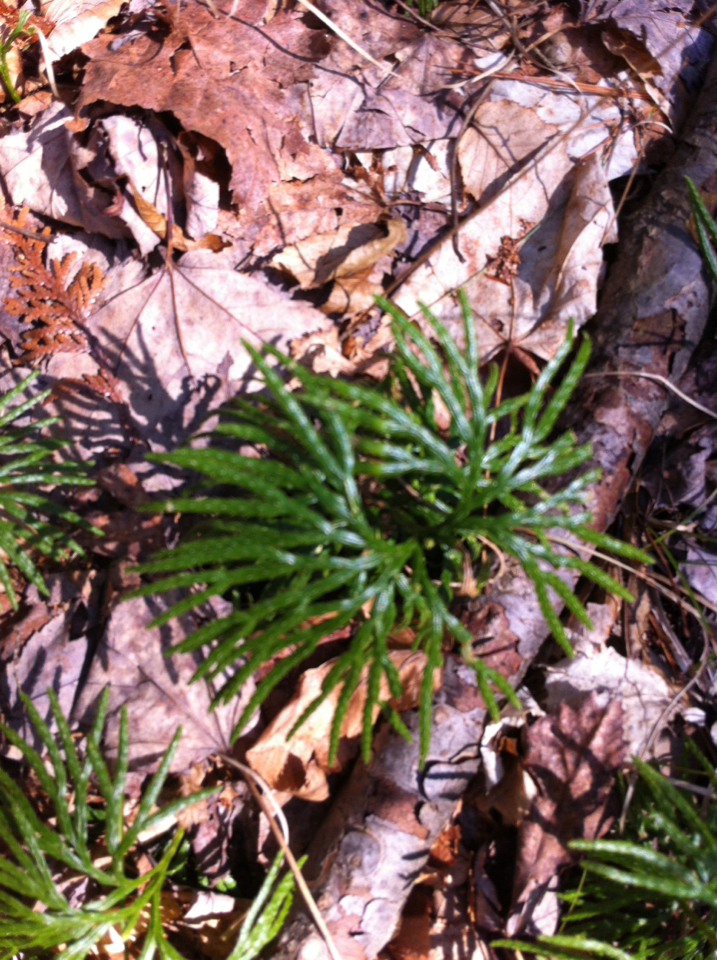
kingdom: Plantae
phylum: Tracheophyta
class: Lycopodiopsida
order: Lycopodiales
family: Lycopodiaceae
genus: Diphasiastrum
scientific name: Diphasiastrum digitatum
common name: Southern running-pine
